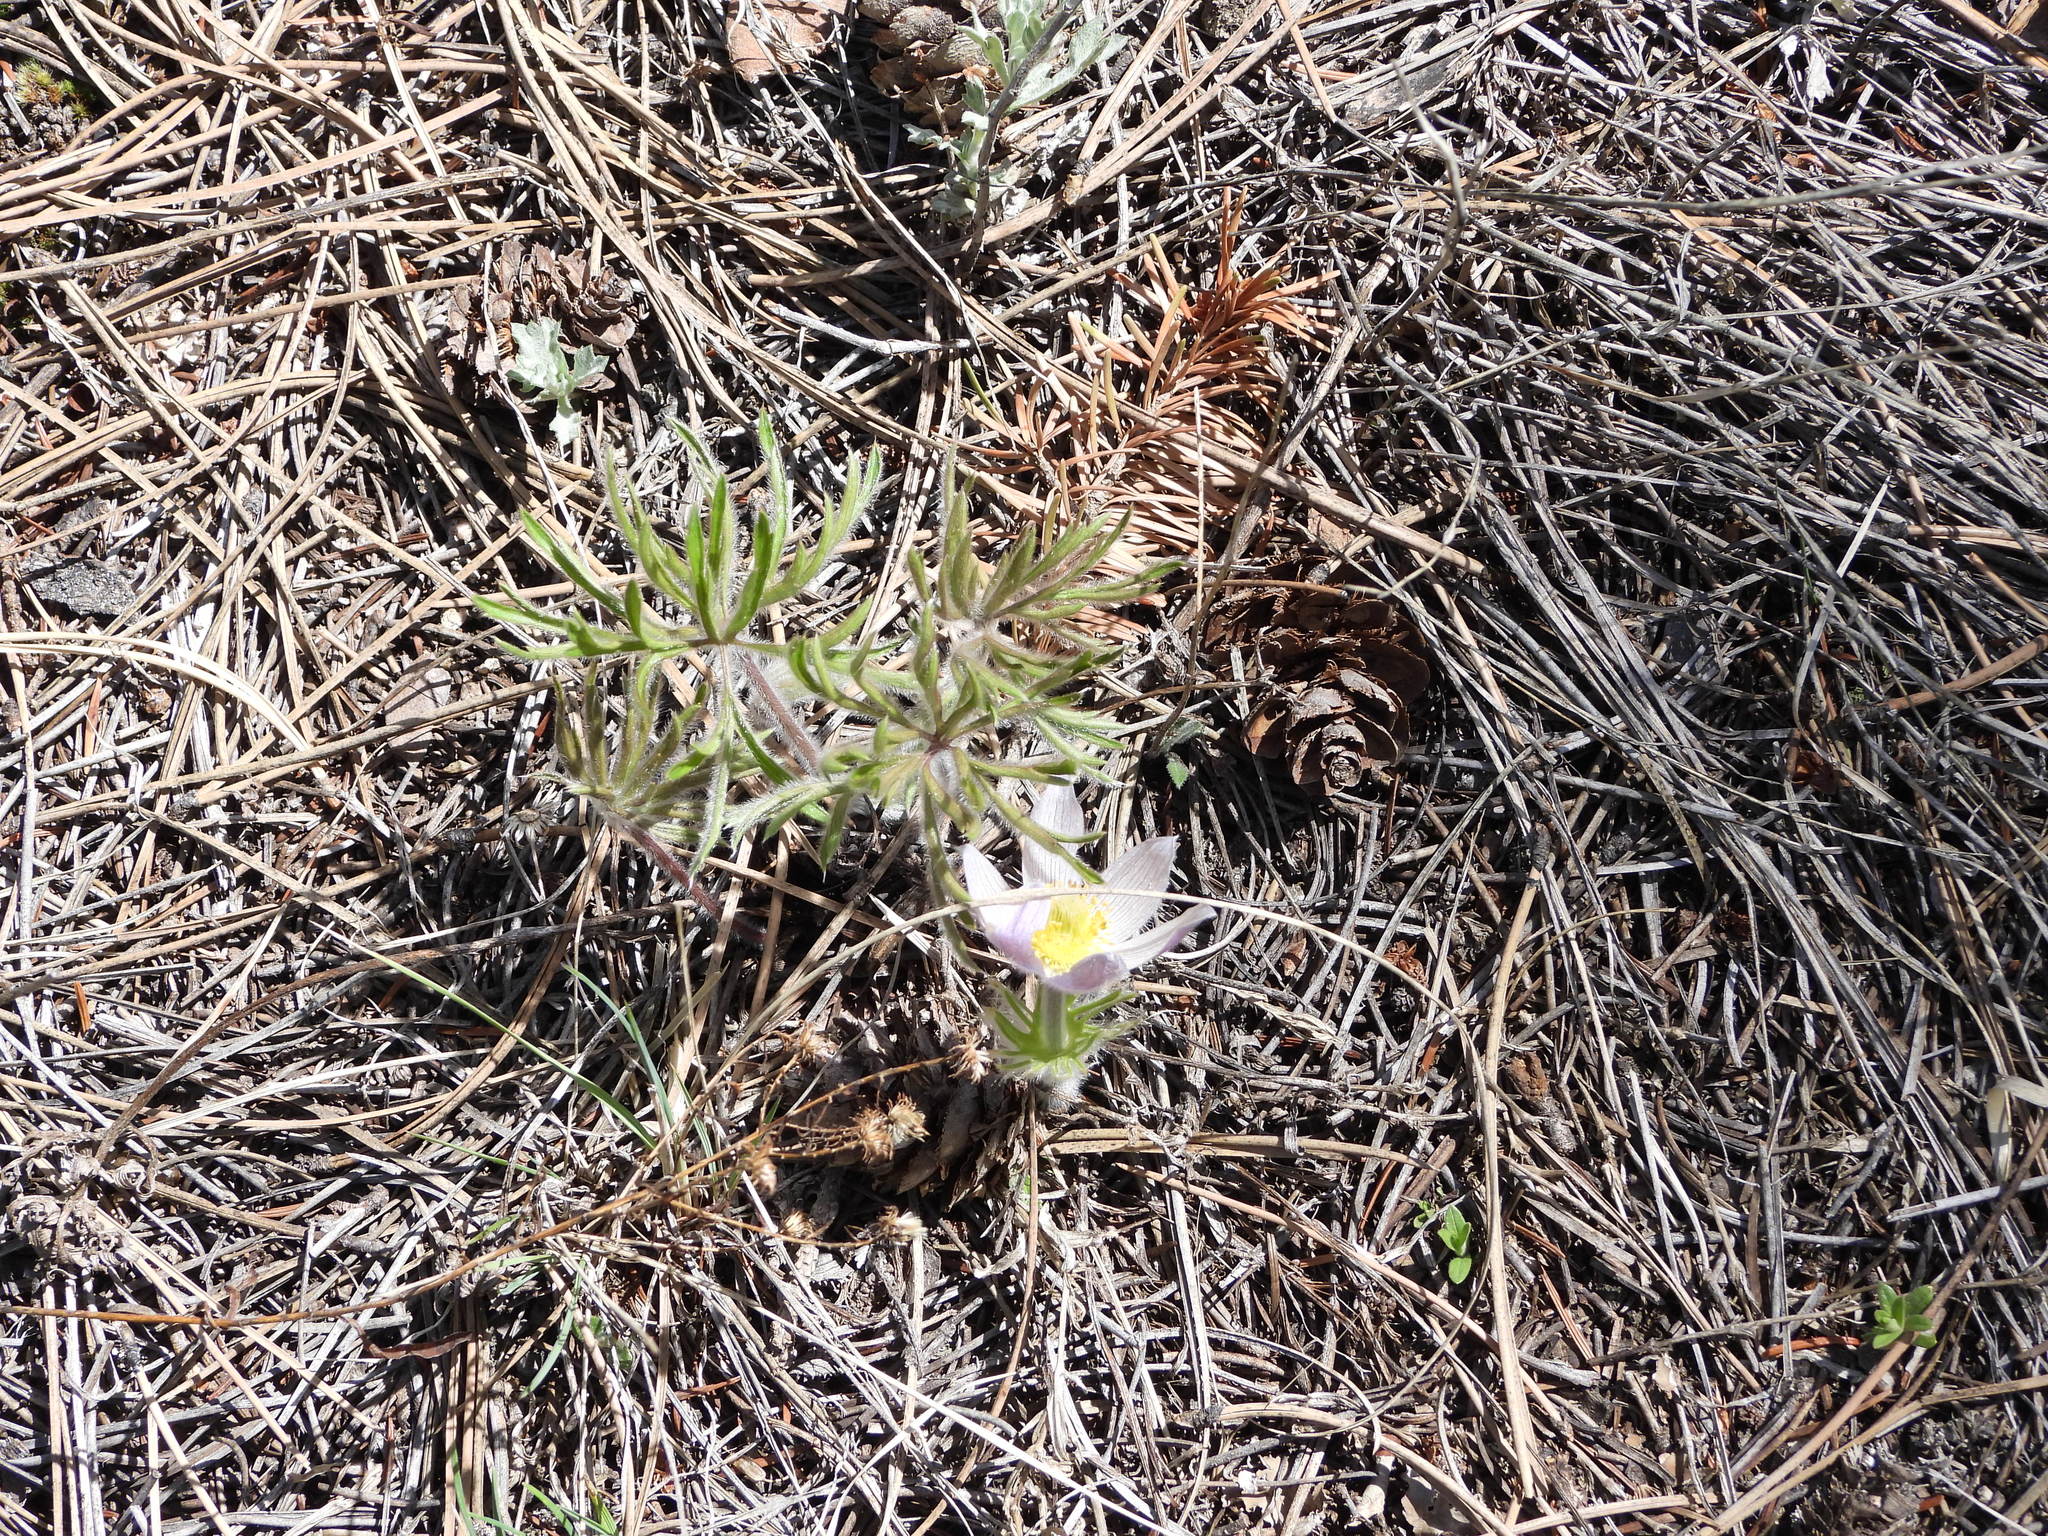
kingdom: Plantae
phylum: Tracheophyta
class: Magnoliopsida
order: Ranunculales
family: Ranunculaceae
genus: Pulsatilla
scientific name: Pulsatilla nuttalliana
